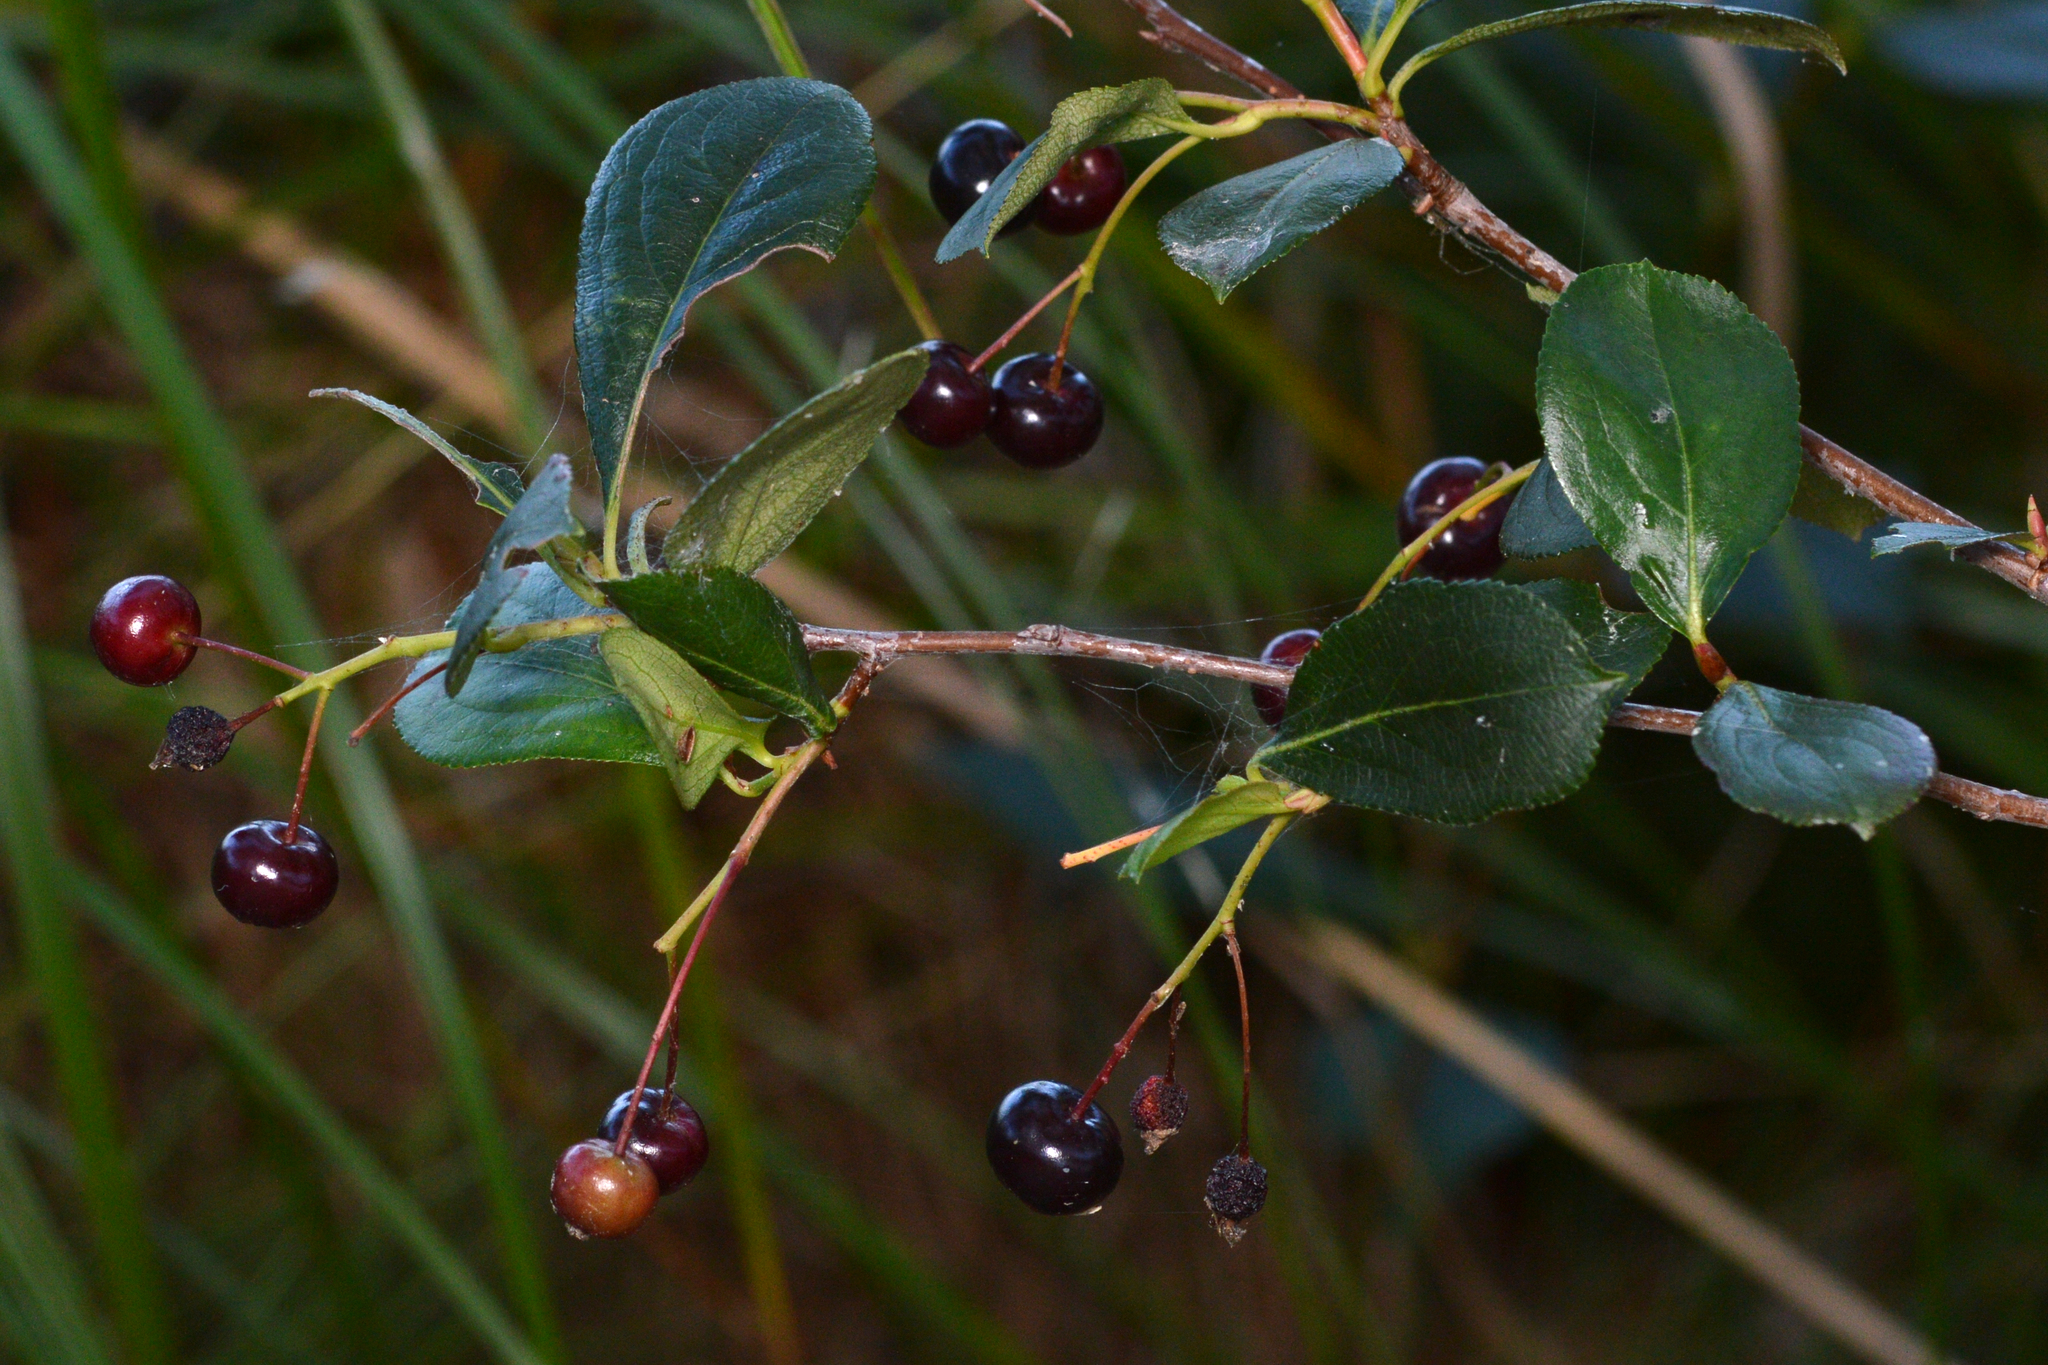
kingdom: Plantae
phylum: Tracheophyta
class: Magnoliopsida
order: Rosales
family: Rosaceae
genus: Aronia
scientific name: Aronia melanocarpa
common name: Black chokeberry
